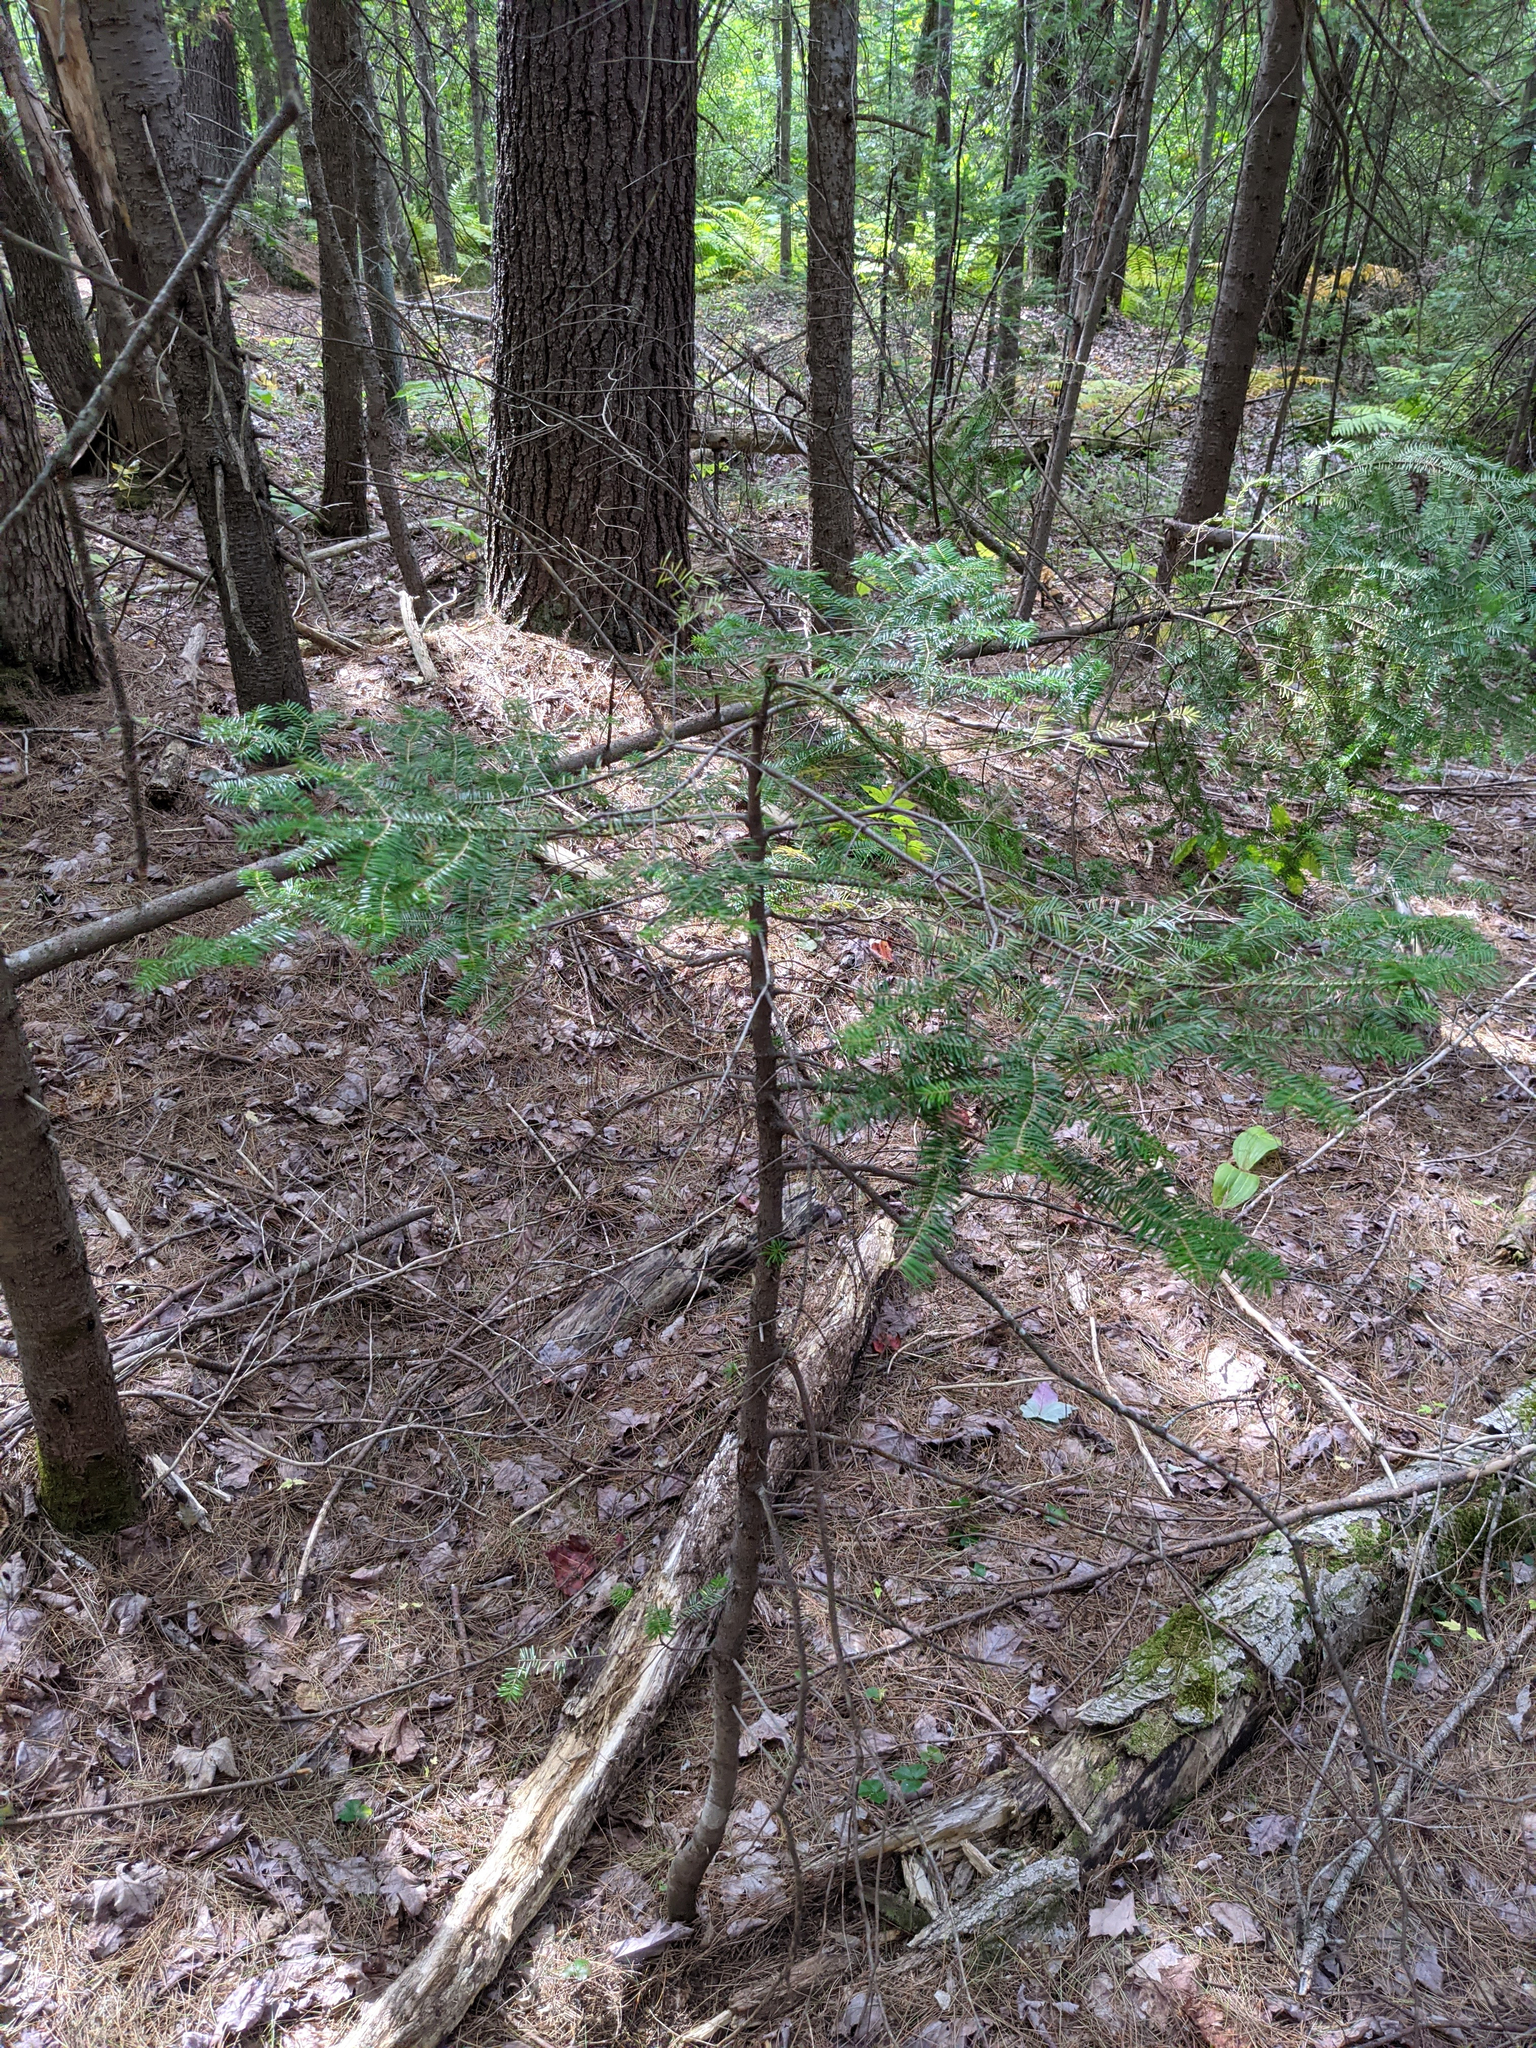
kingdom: Plantae
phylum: Tracheophyta
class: Pinopsida
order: Pinales
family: Pinaceae
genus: Abies
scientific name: Abies balsamea
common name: Balsam fir
